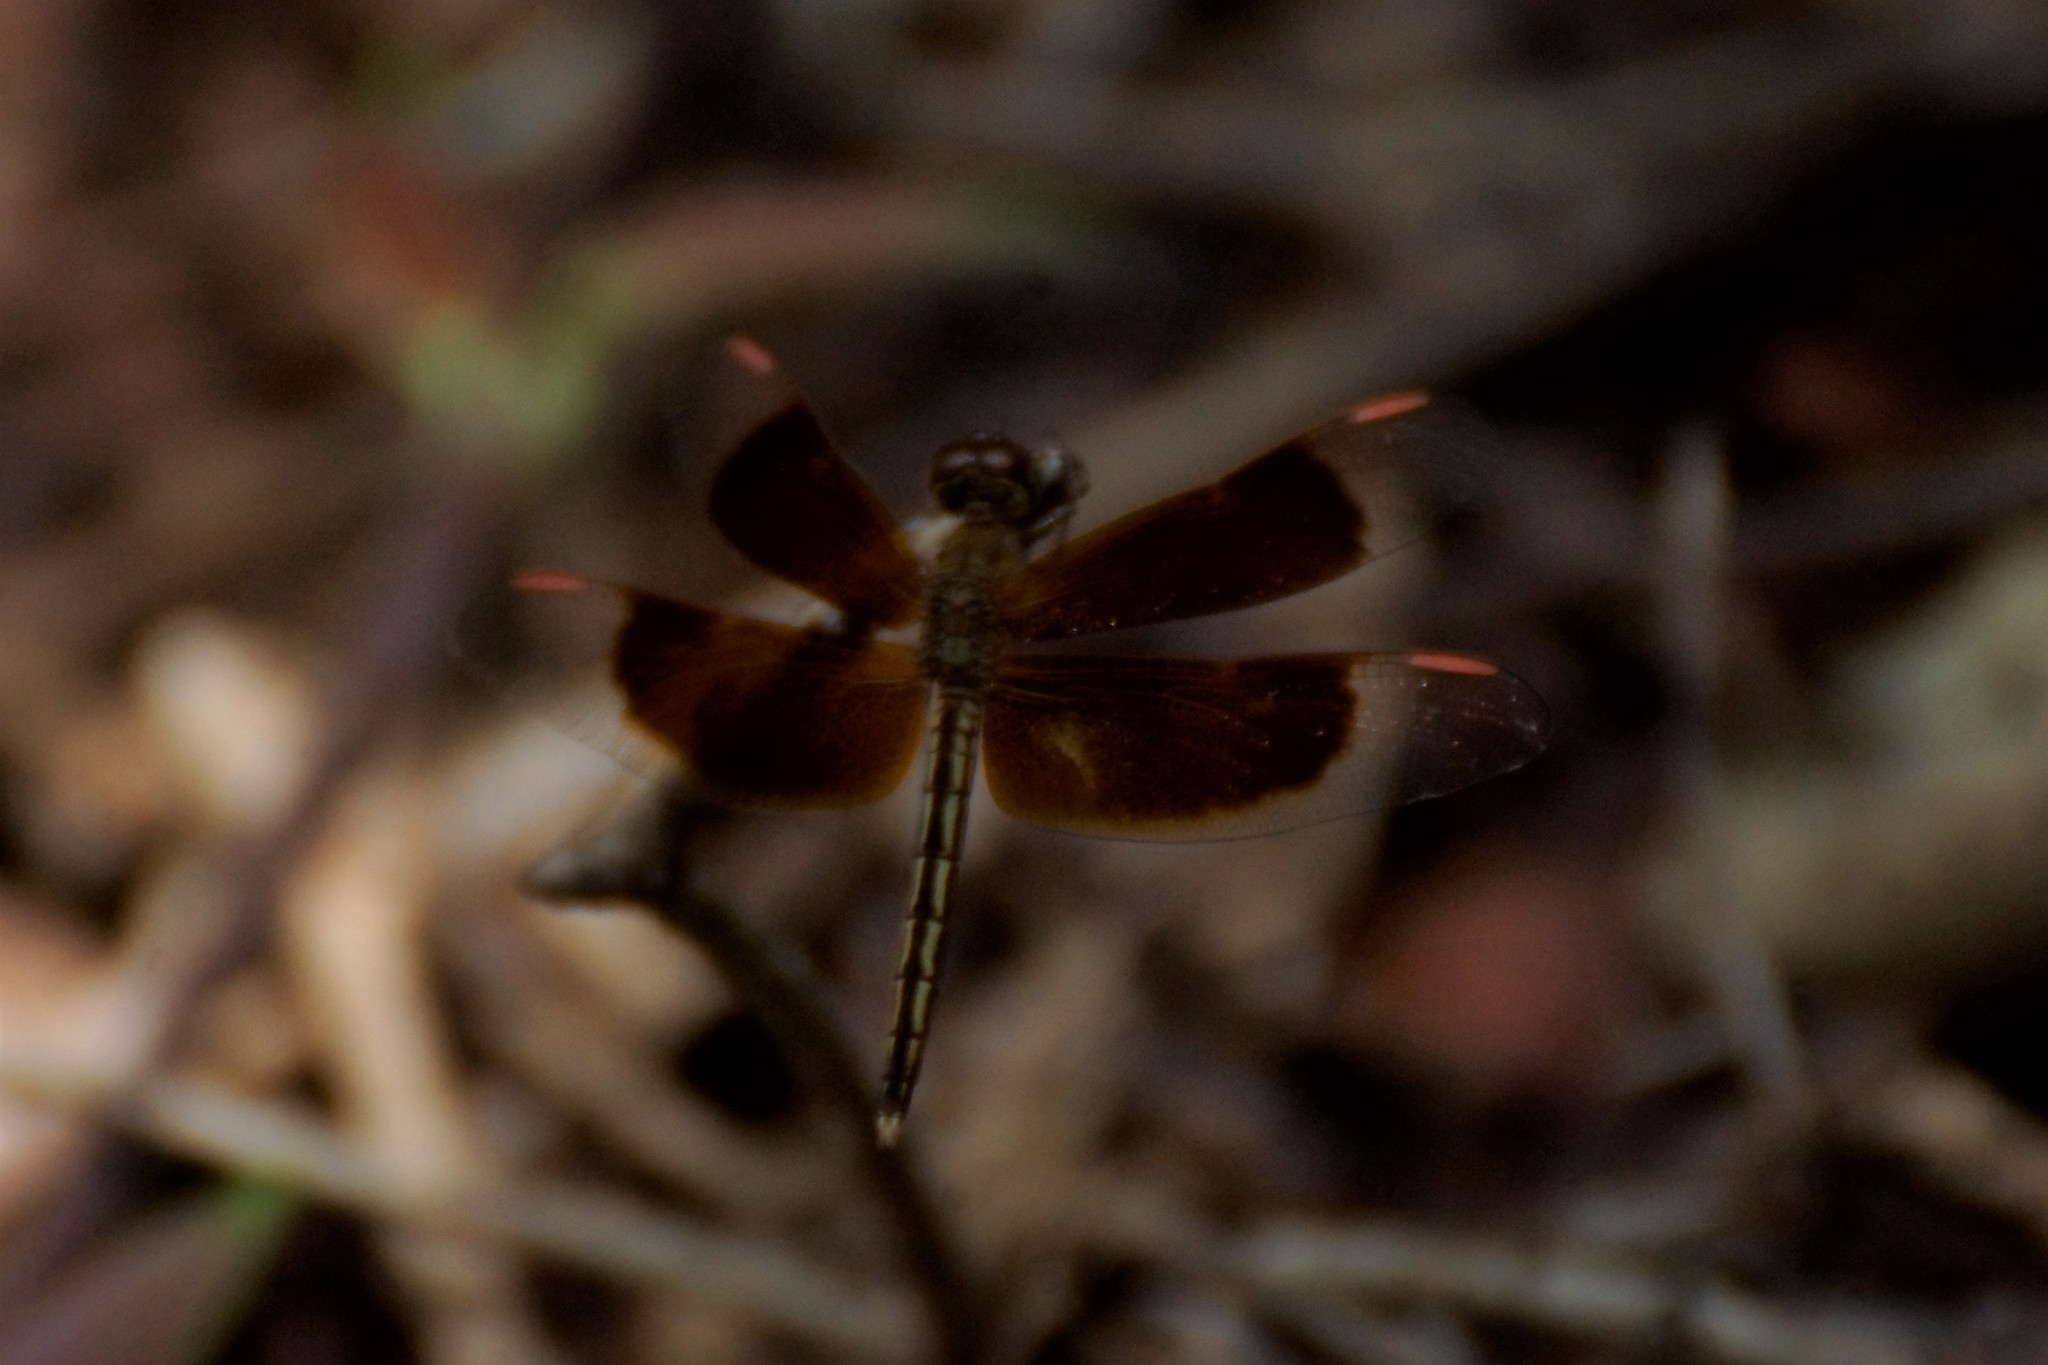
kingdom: Animalia
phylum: Arthropoda
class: Insecta
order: Odonata
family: Libellulidae
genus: Neurothemis
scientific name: Neurothemis stigmatizans
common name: Painted grasshawk
